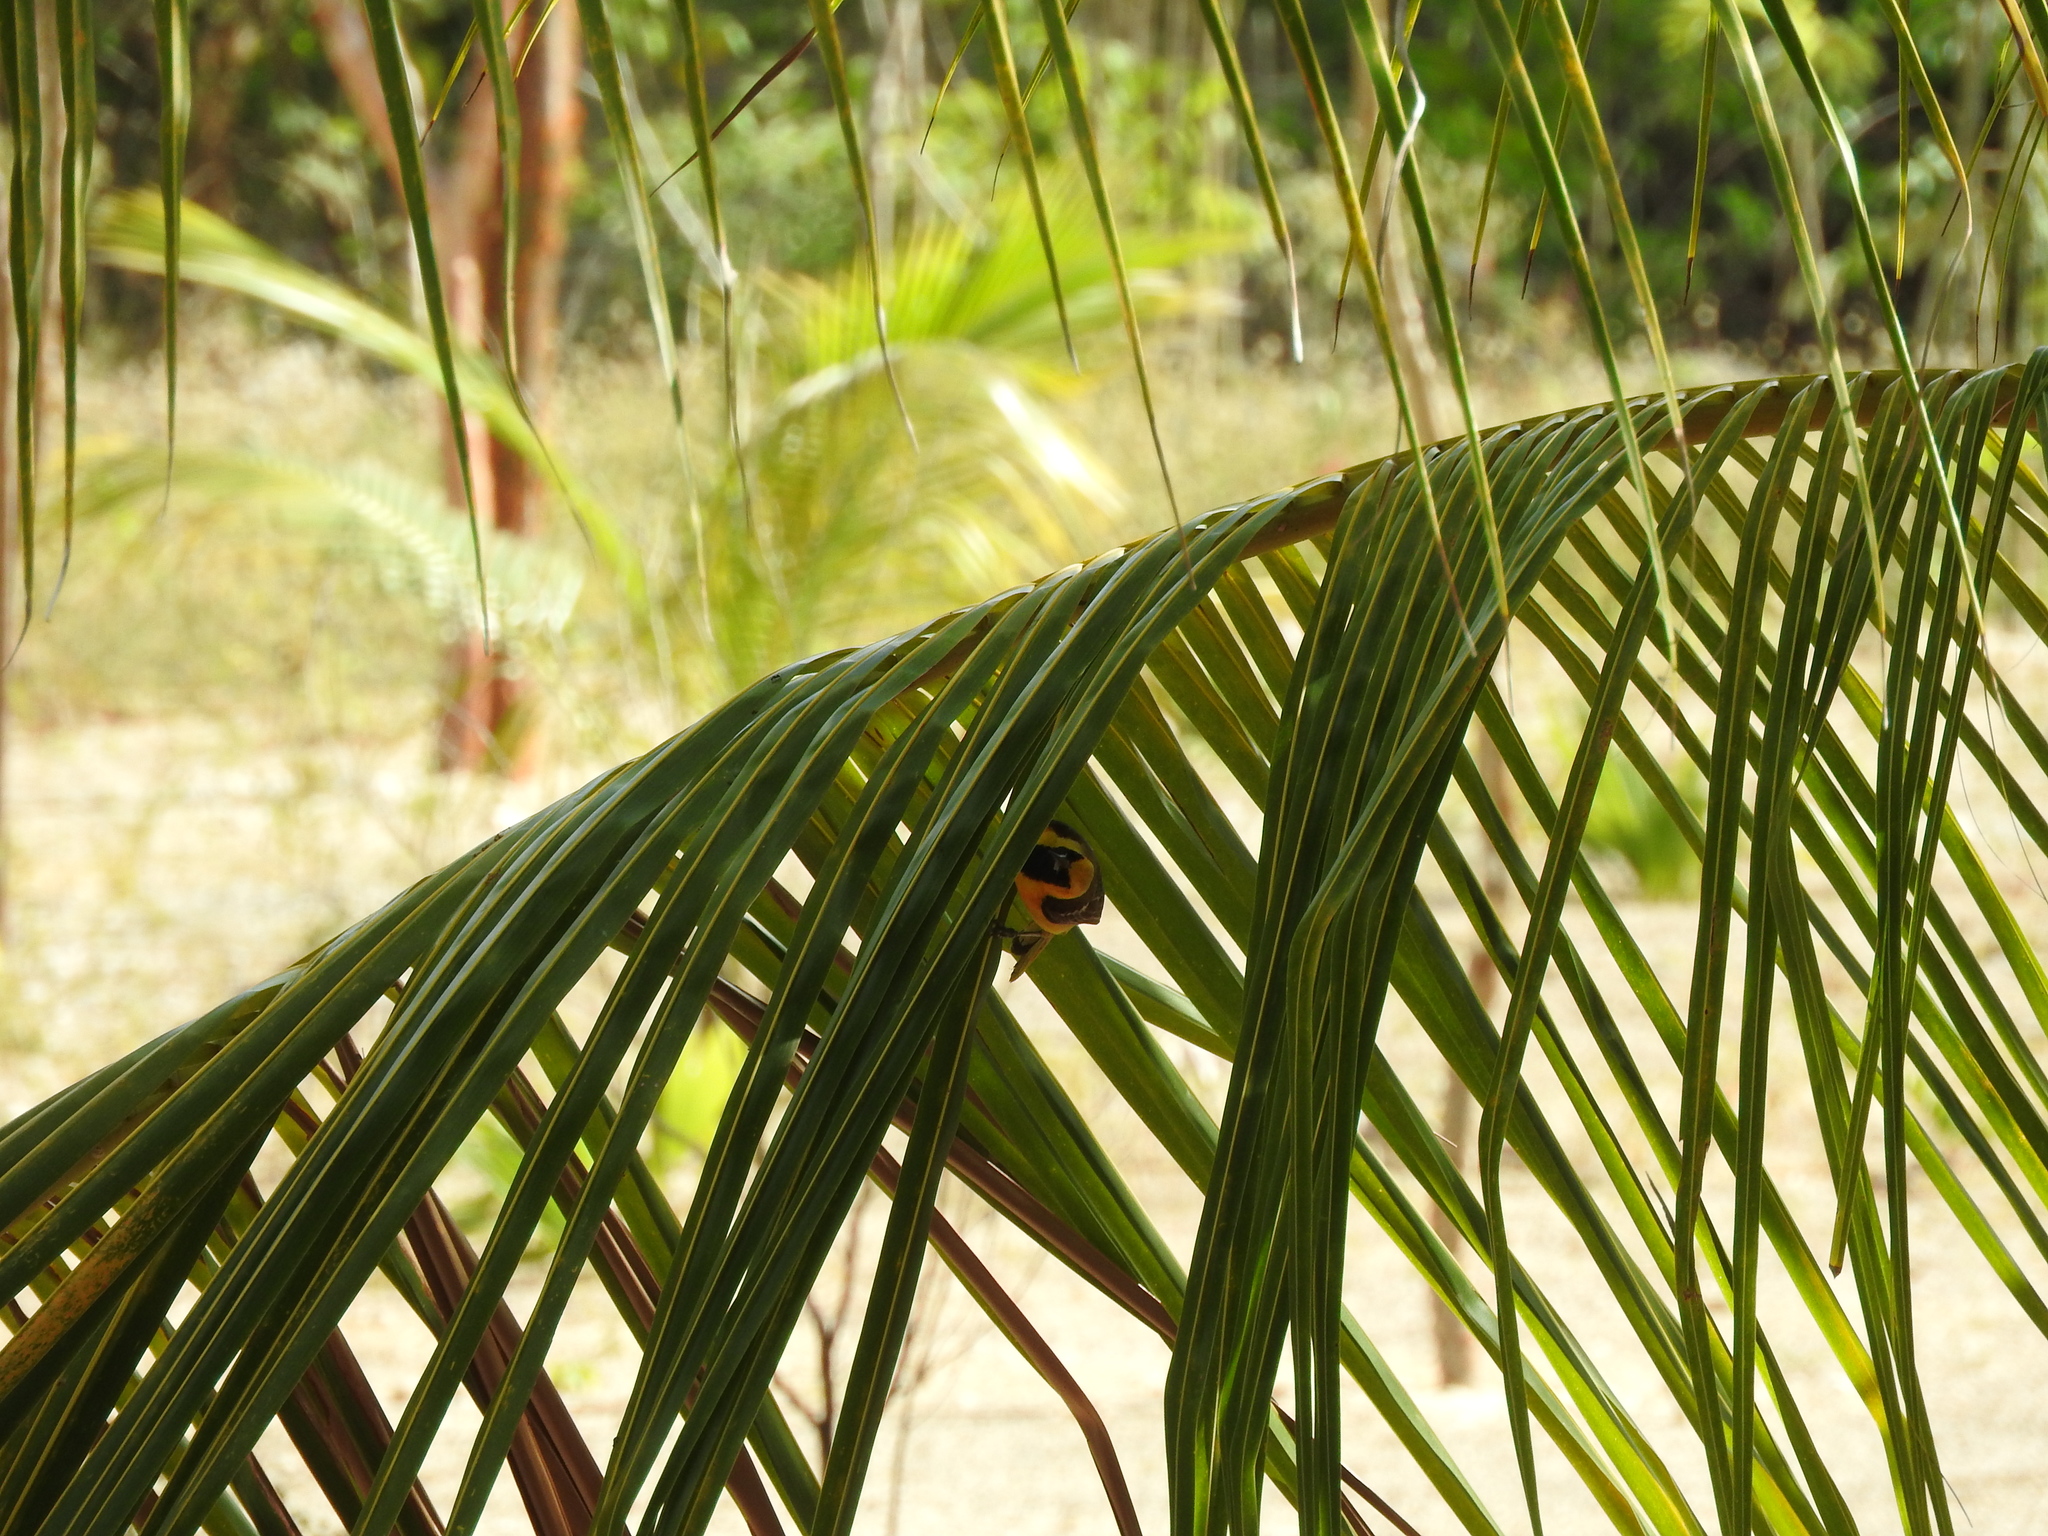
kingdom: Animalia
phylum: Chordata
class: Aves
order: Passeriformes
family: Icteridae
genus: Icterus
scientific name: Icterus cucullatus
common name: Hooded oriole
